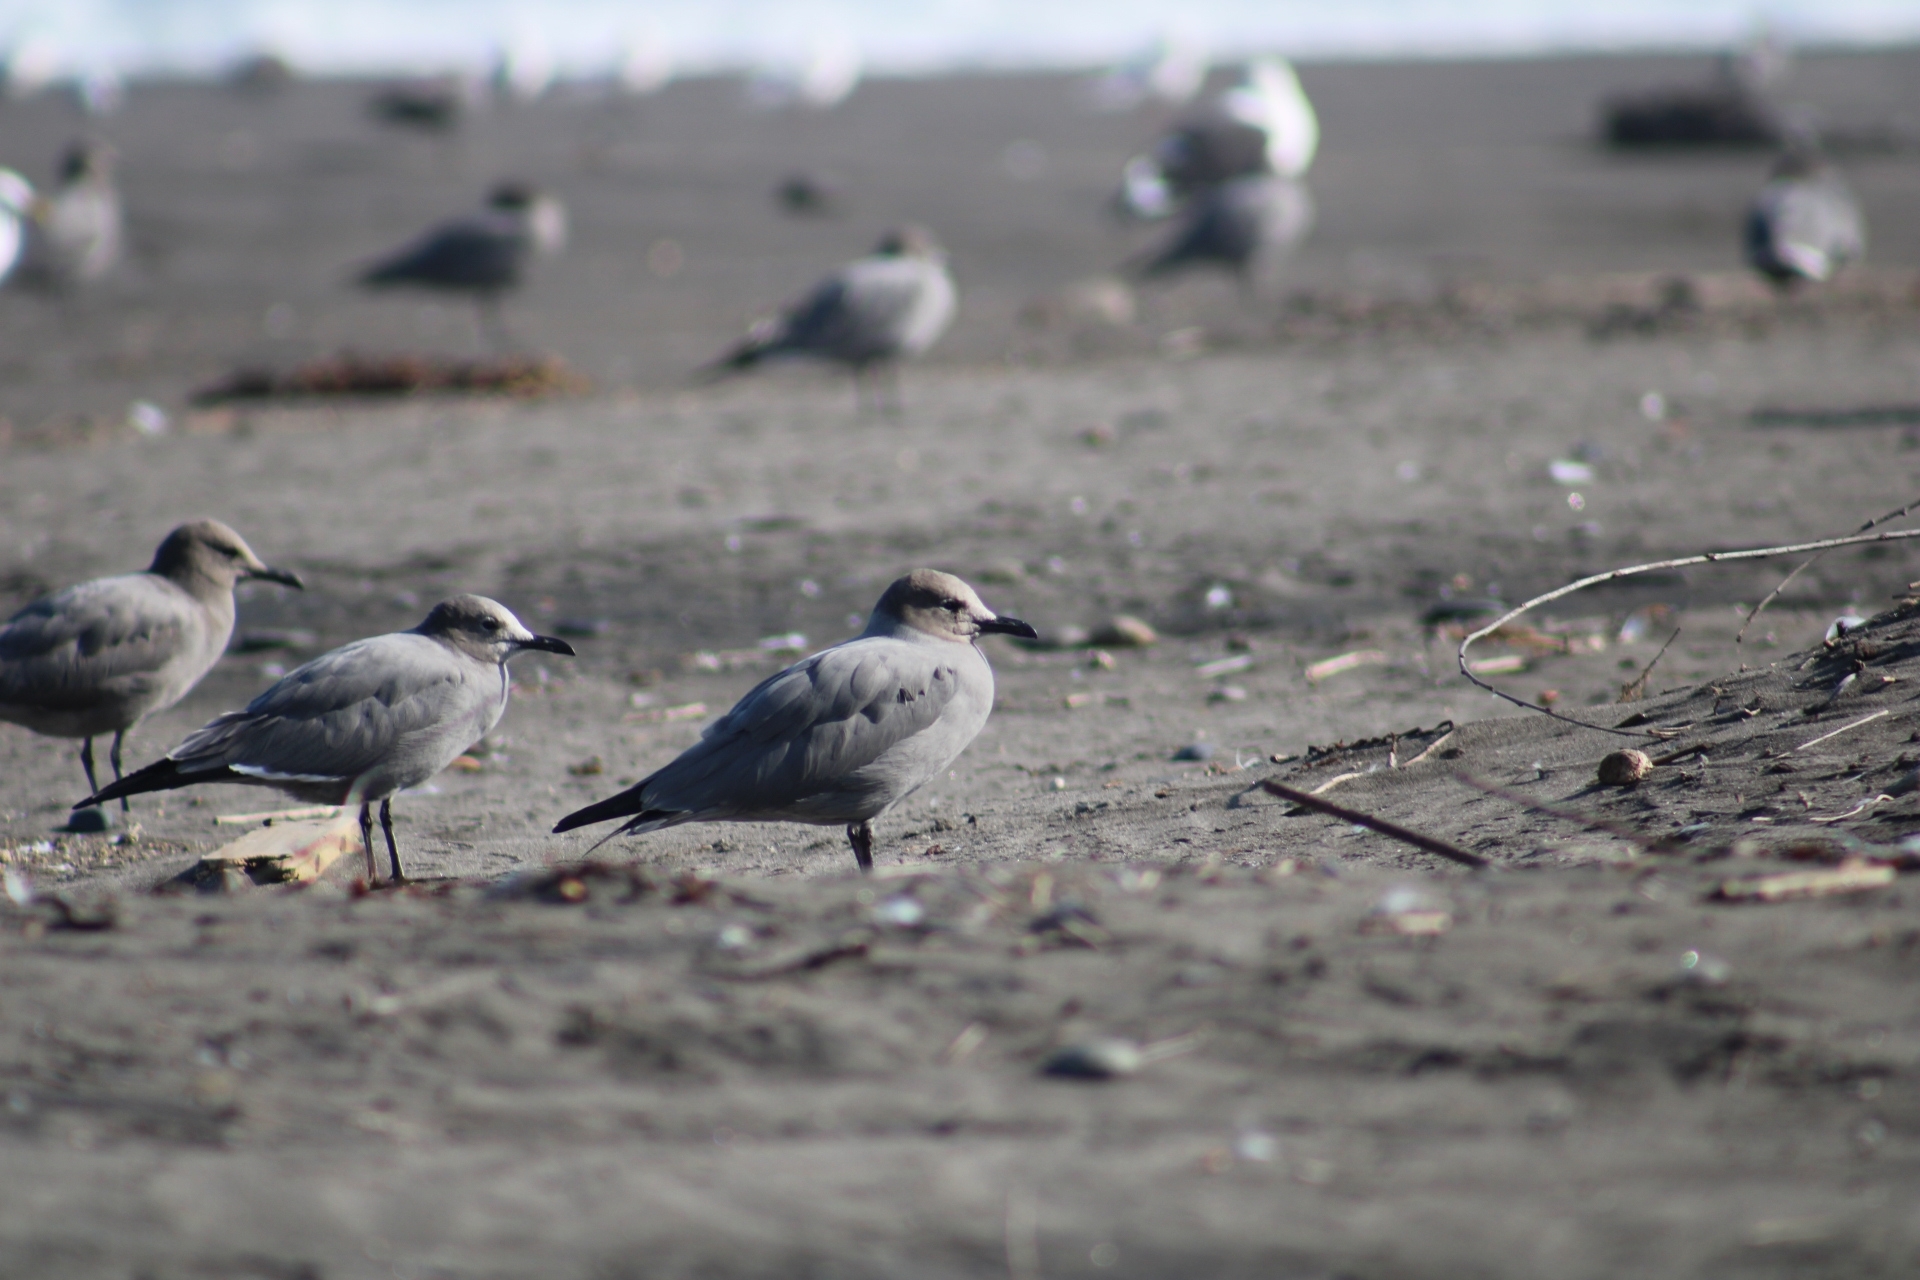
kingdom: Animalia
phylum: Chordata
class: Aves
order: Charadriiformes
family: Laridae
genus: Leucophaeus
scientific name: Leucophaeus modestus
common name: Gray gull
